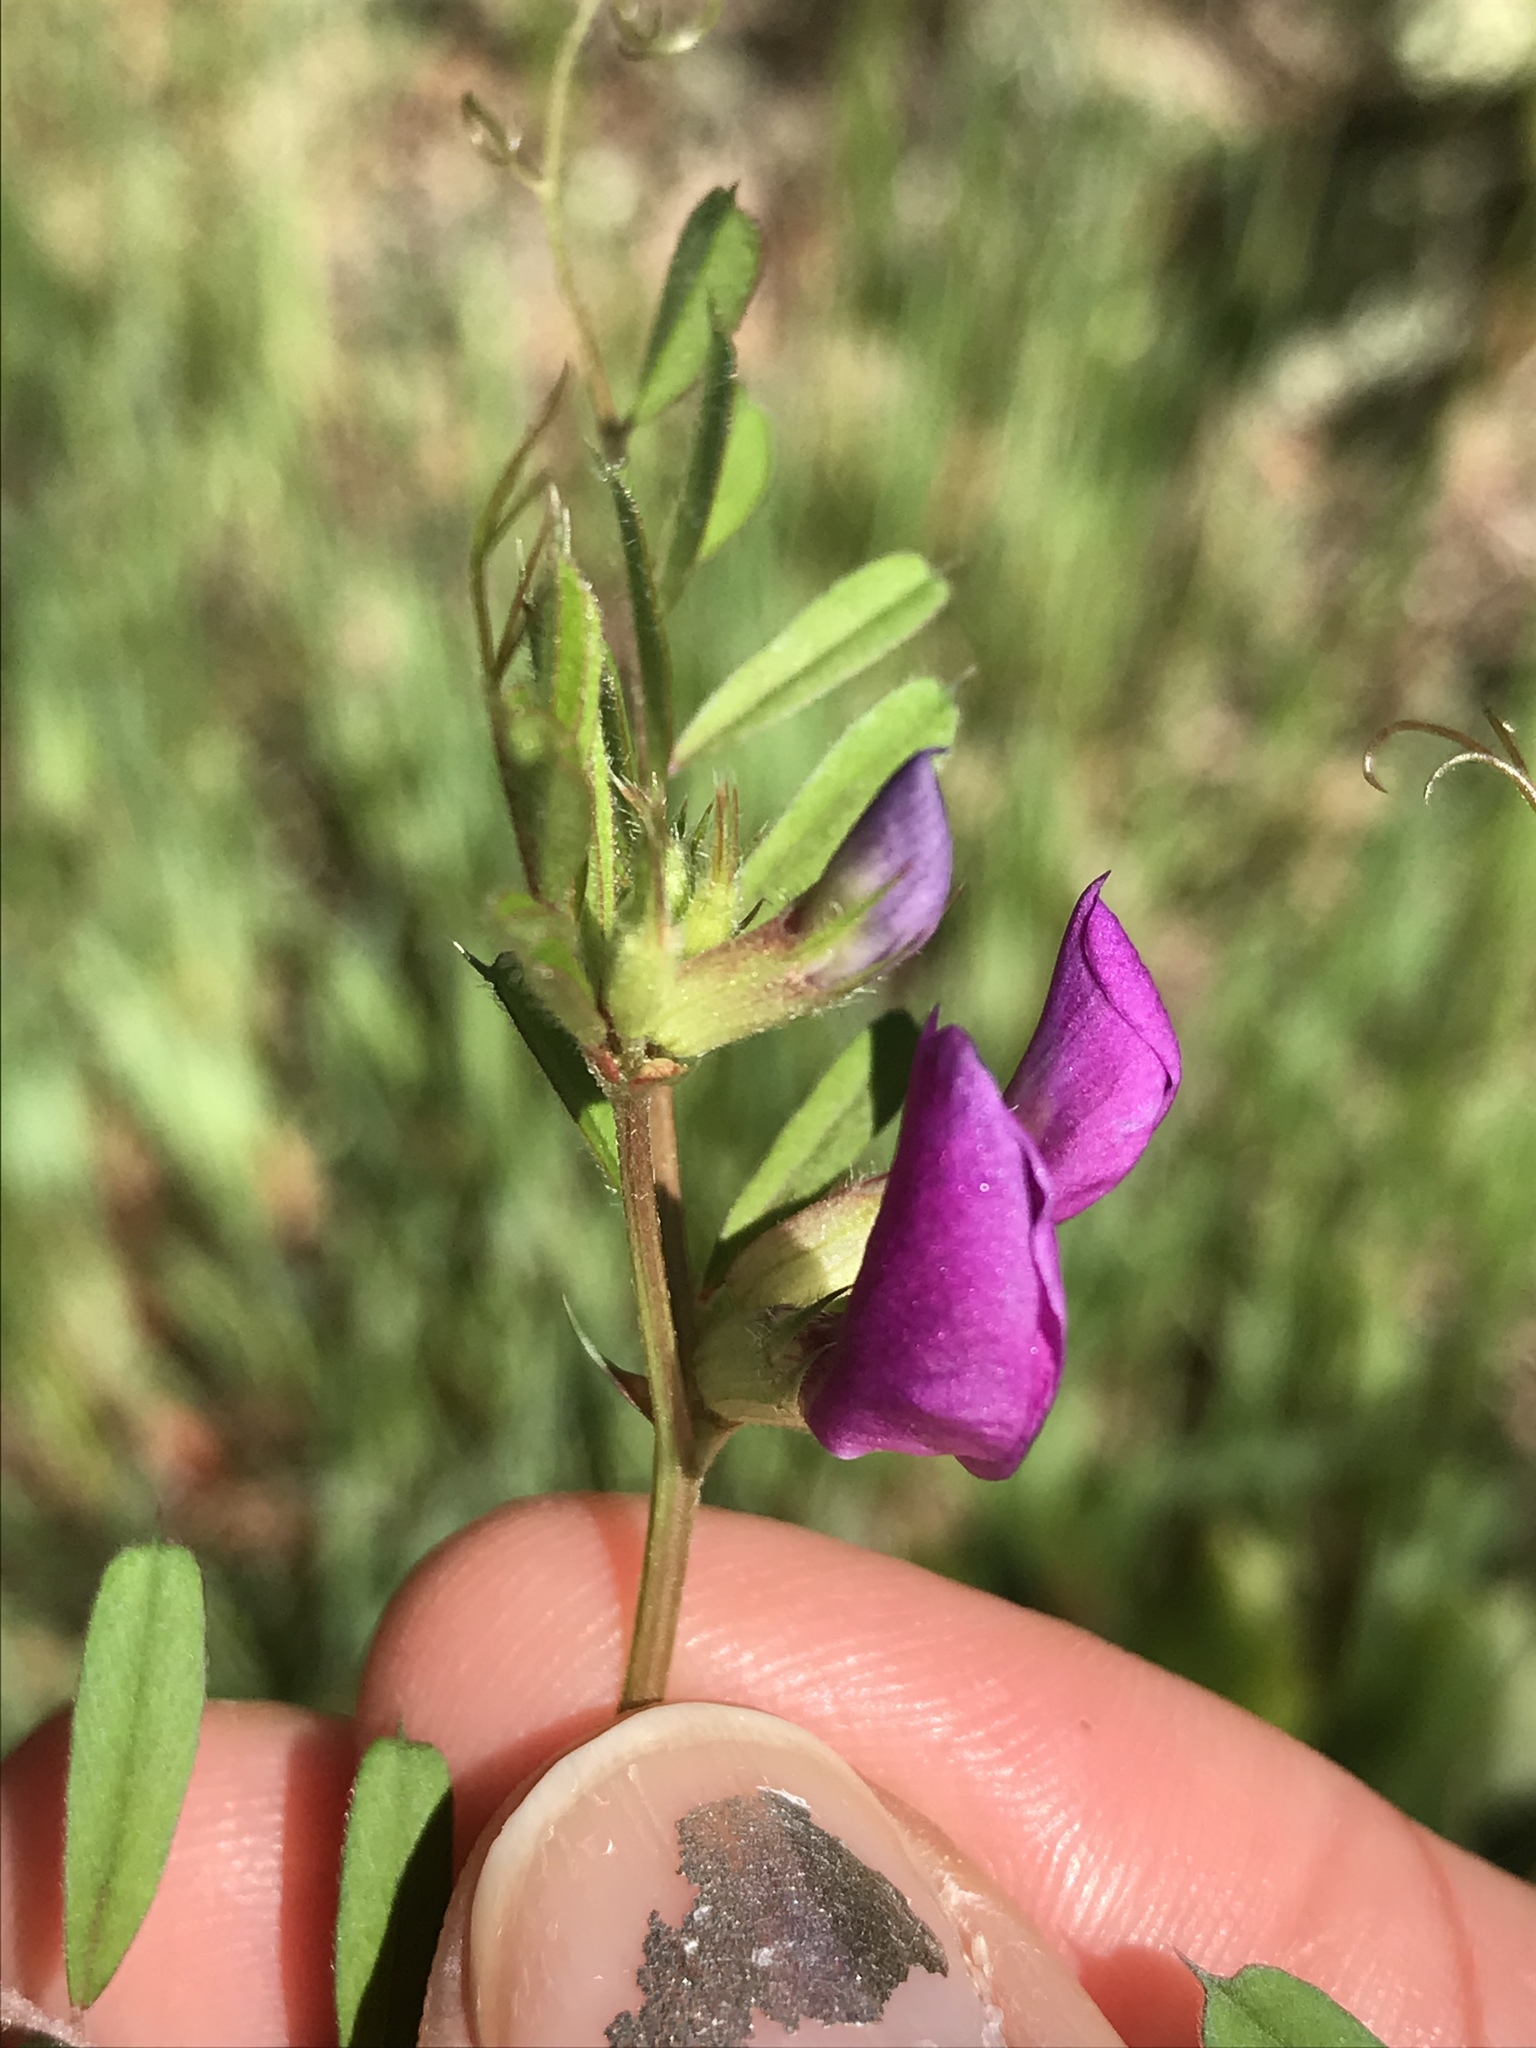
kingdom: Plantae
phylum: Tracheophyta
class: Magnoliopsida
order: Fabales
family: Fabaceae
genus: Vicia
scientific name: Vicia sativa
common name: Garden vetch
